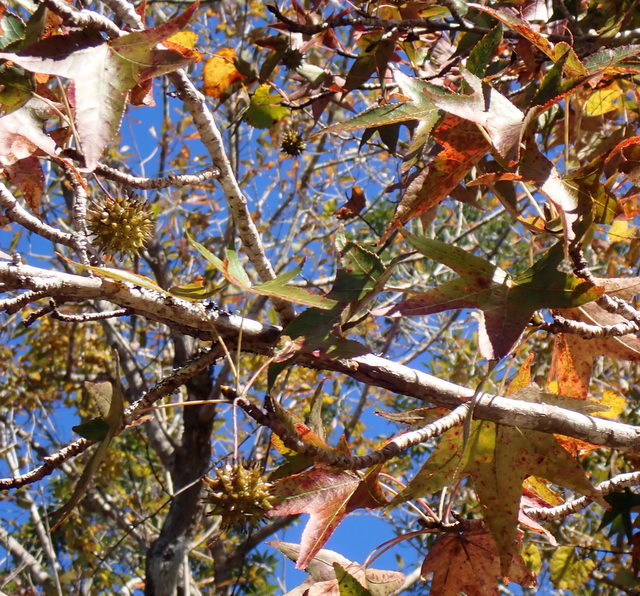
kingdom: Plantae
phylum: Tracheophyta
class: Magnoliopsida
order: Saxifragales
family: Altingiaceae
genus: Liquidambar
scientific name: Liquidambar styraciflua
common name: Sweet gum
